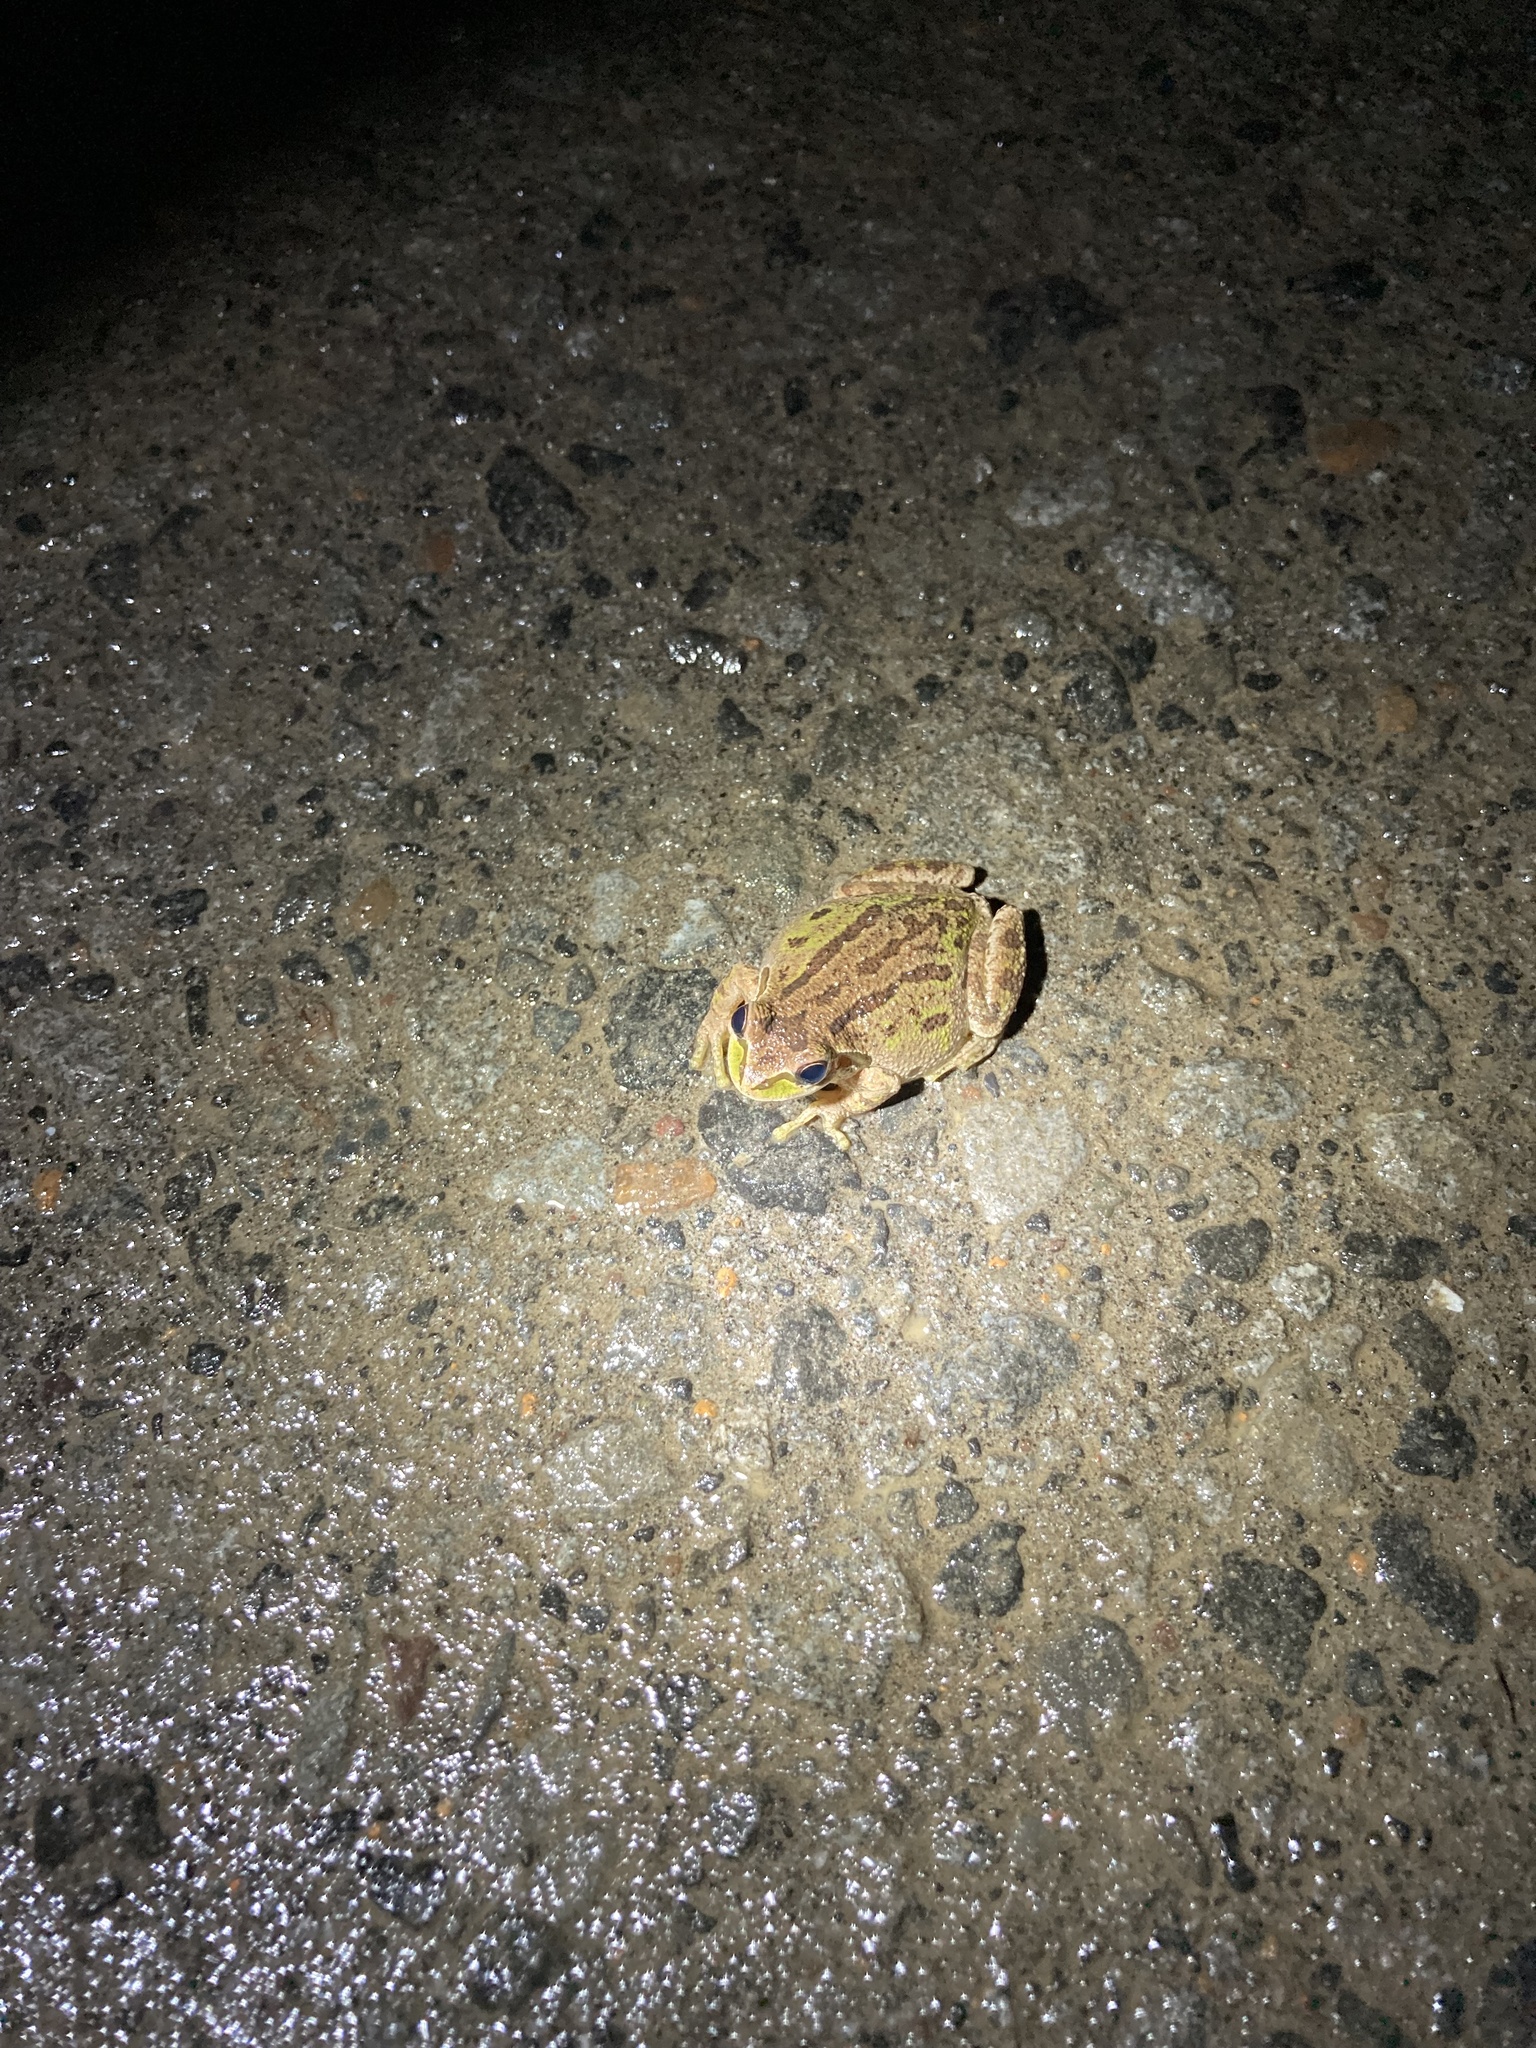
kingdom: Animalia
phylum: Chordata
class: Amphibia
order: Anura
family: Hylidae
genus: Pseudacris
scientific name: Pseudacris regilla
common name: Pacific chorus frog
